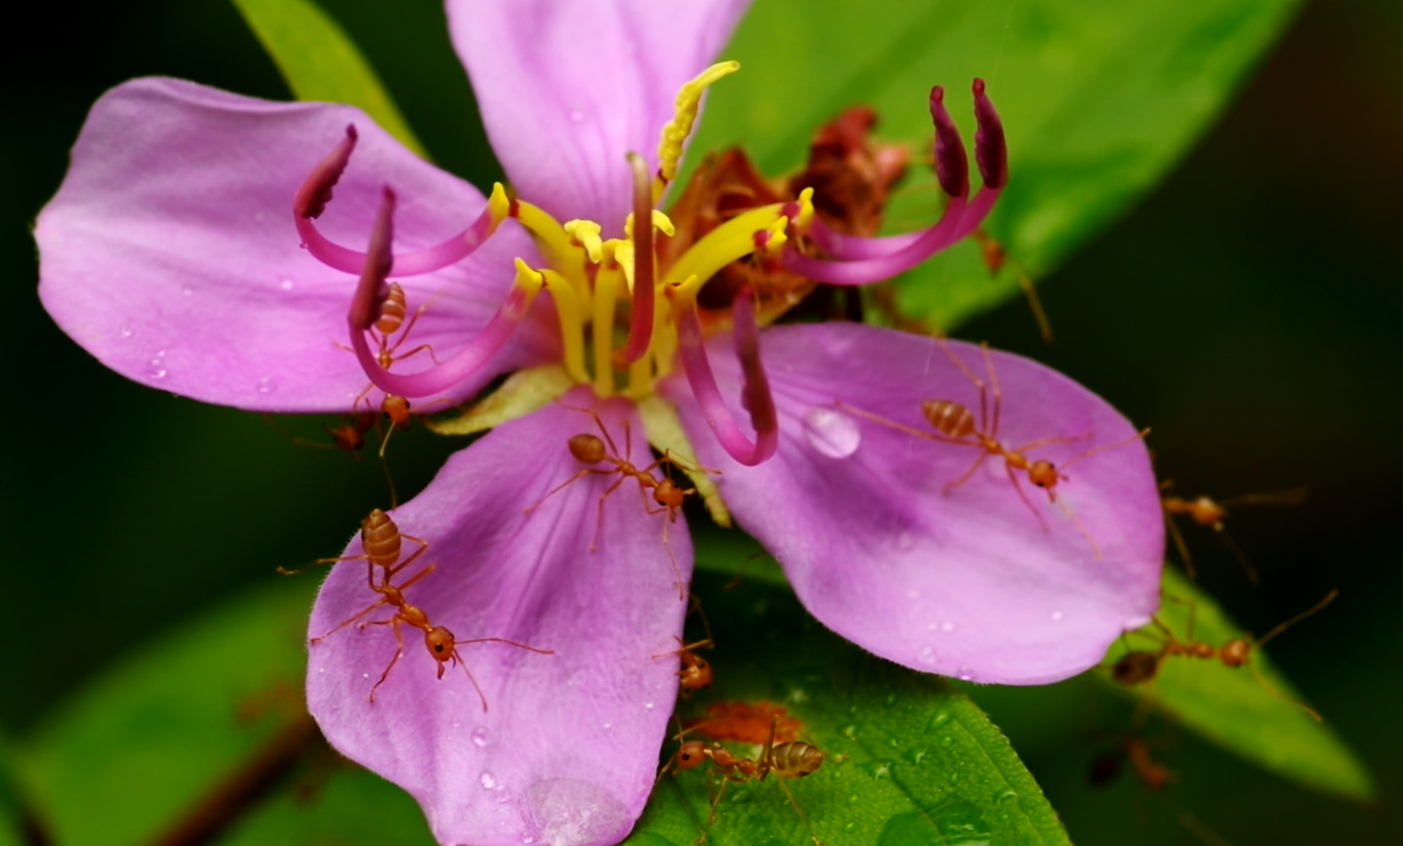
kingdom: Animalia
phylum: Arthropoda
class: Insecta
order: Hymenoptera
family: Formicidae
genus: Oecophylla
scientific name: Oecophylla smaragdina
